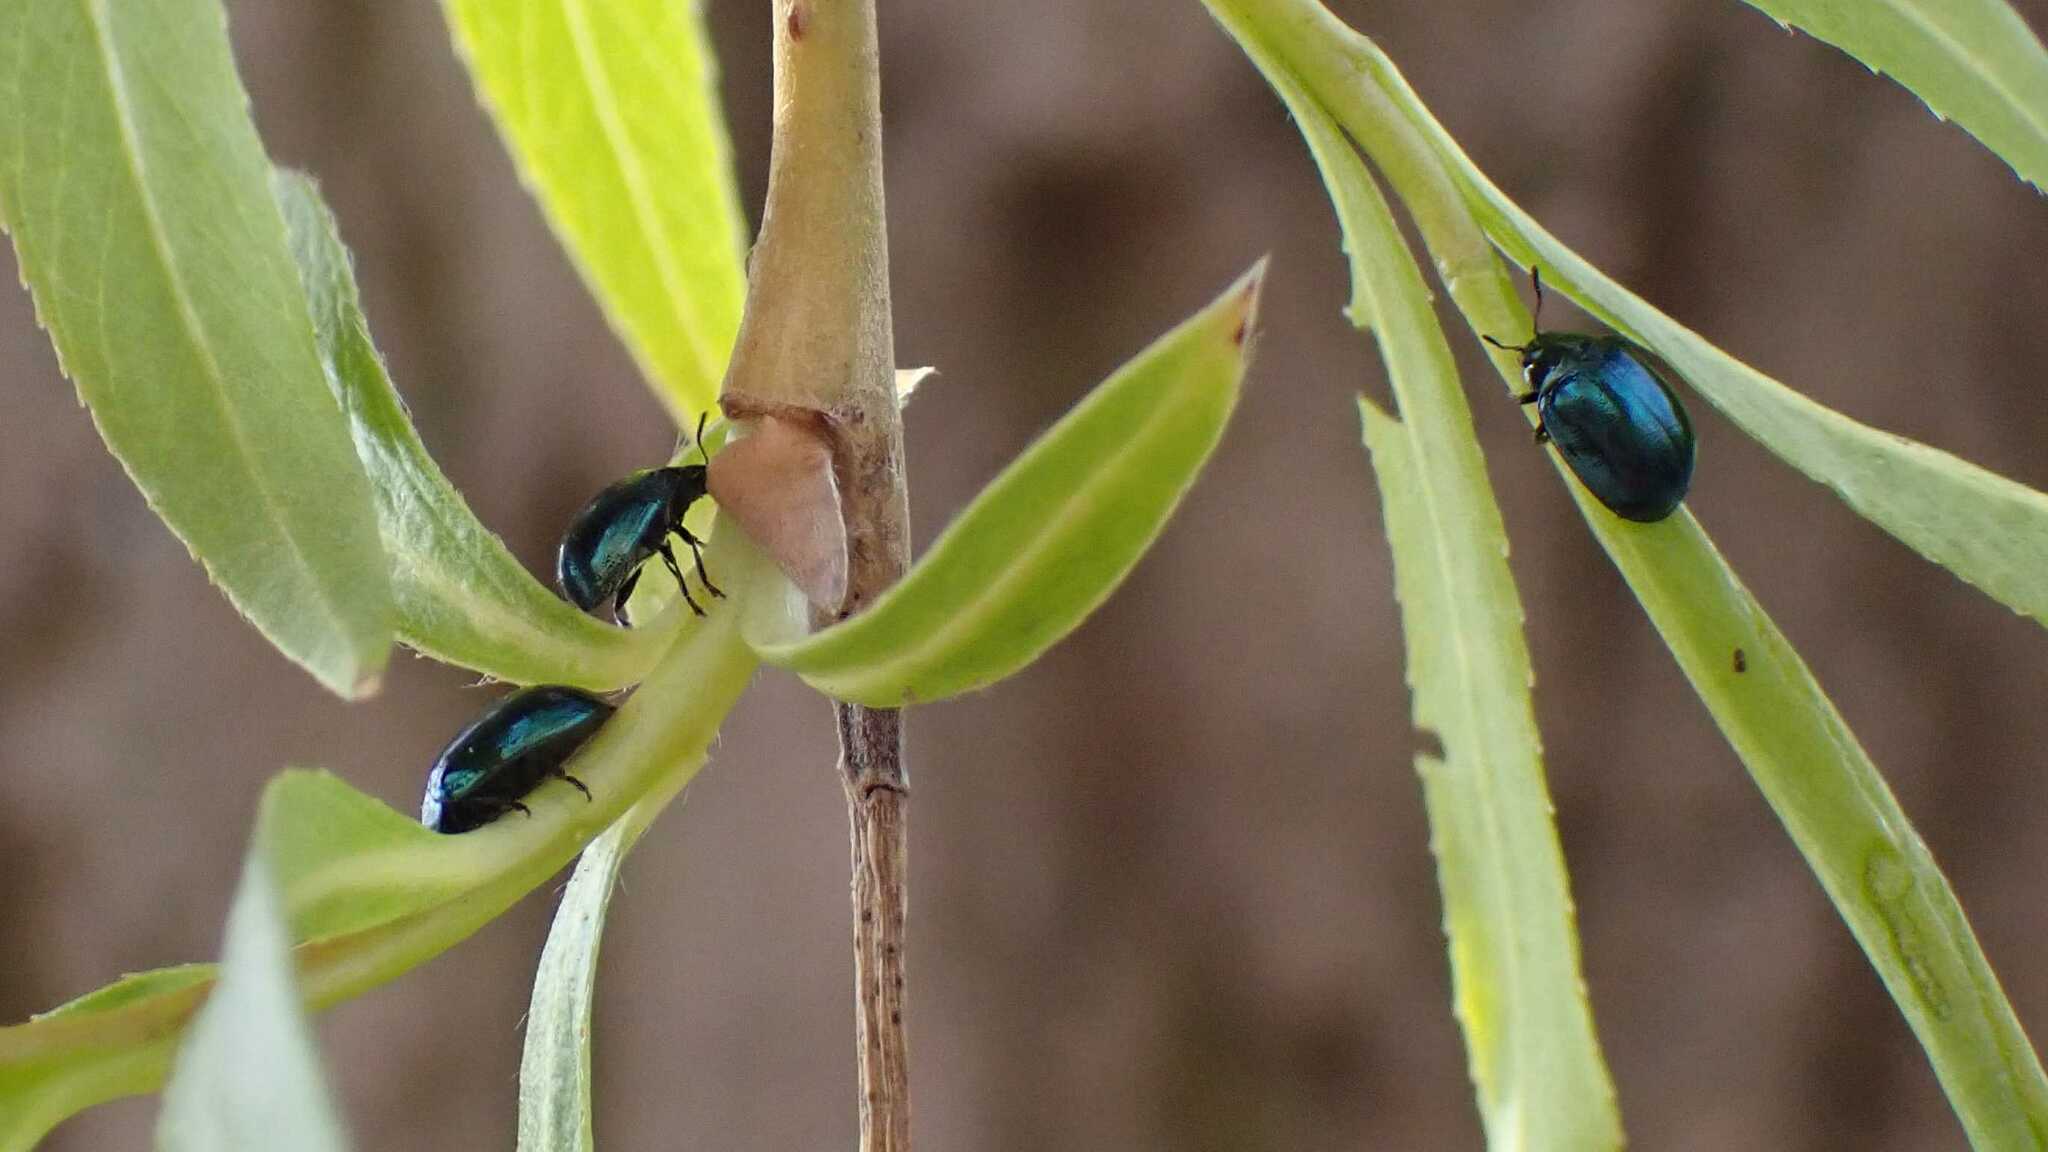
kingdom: Animalia
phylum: Arthropoda
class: Insecta
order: Coleoptera
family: Chrysomelidae
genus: Plagiodera
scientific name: Plagiodera versicolora
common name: Imported willow leaf beetle
